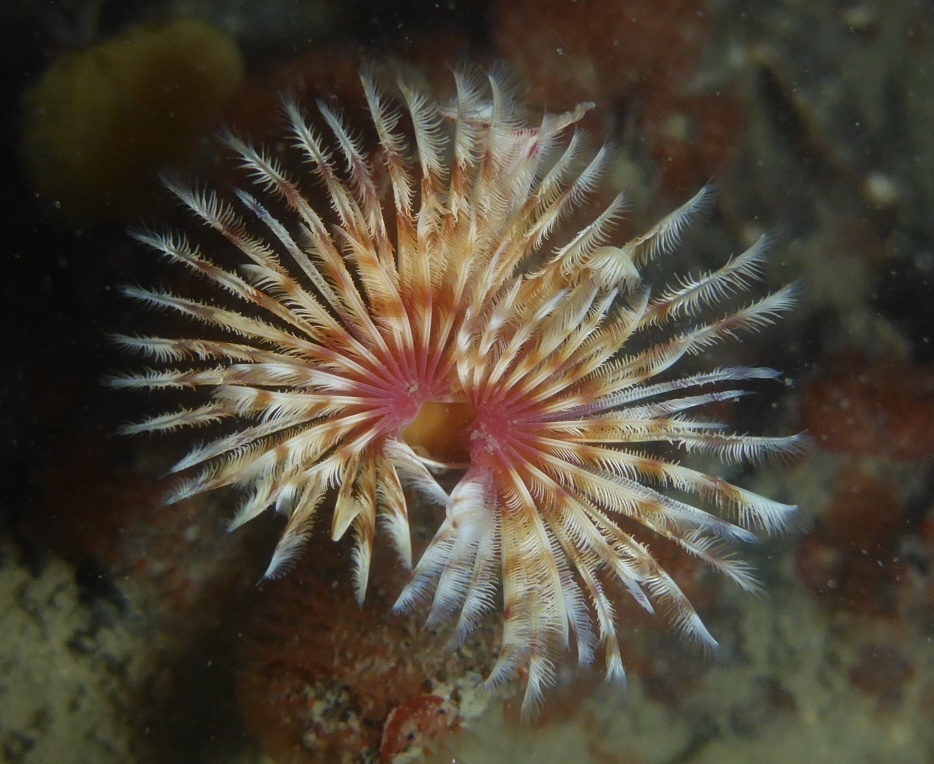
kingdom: Animalia
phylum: Annelida
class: Polychaeta
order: Sabellida
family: Serpulidae
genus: Serpula
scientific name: Serpula columbiana
